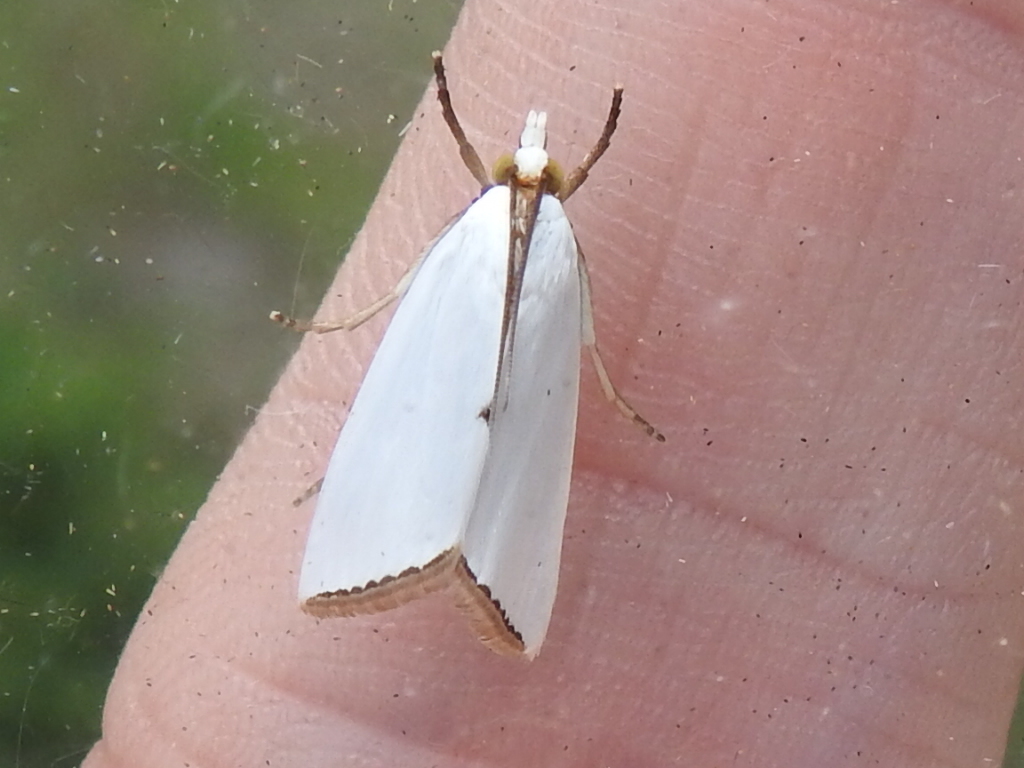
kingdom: Animalia
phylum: Arthropoda
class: Insecta
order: Lepidoptera
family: Crambidae
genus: Argyria
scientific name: Argyria nivalis
